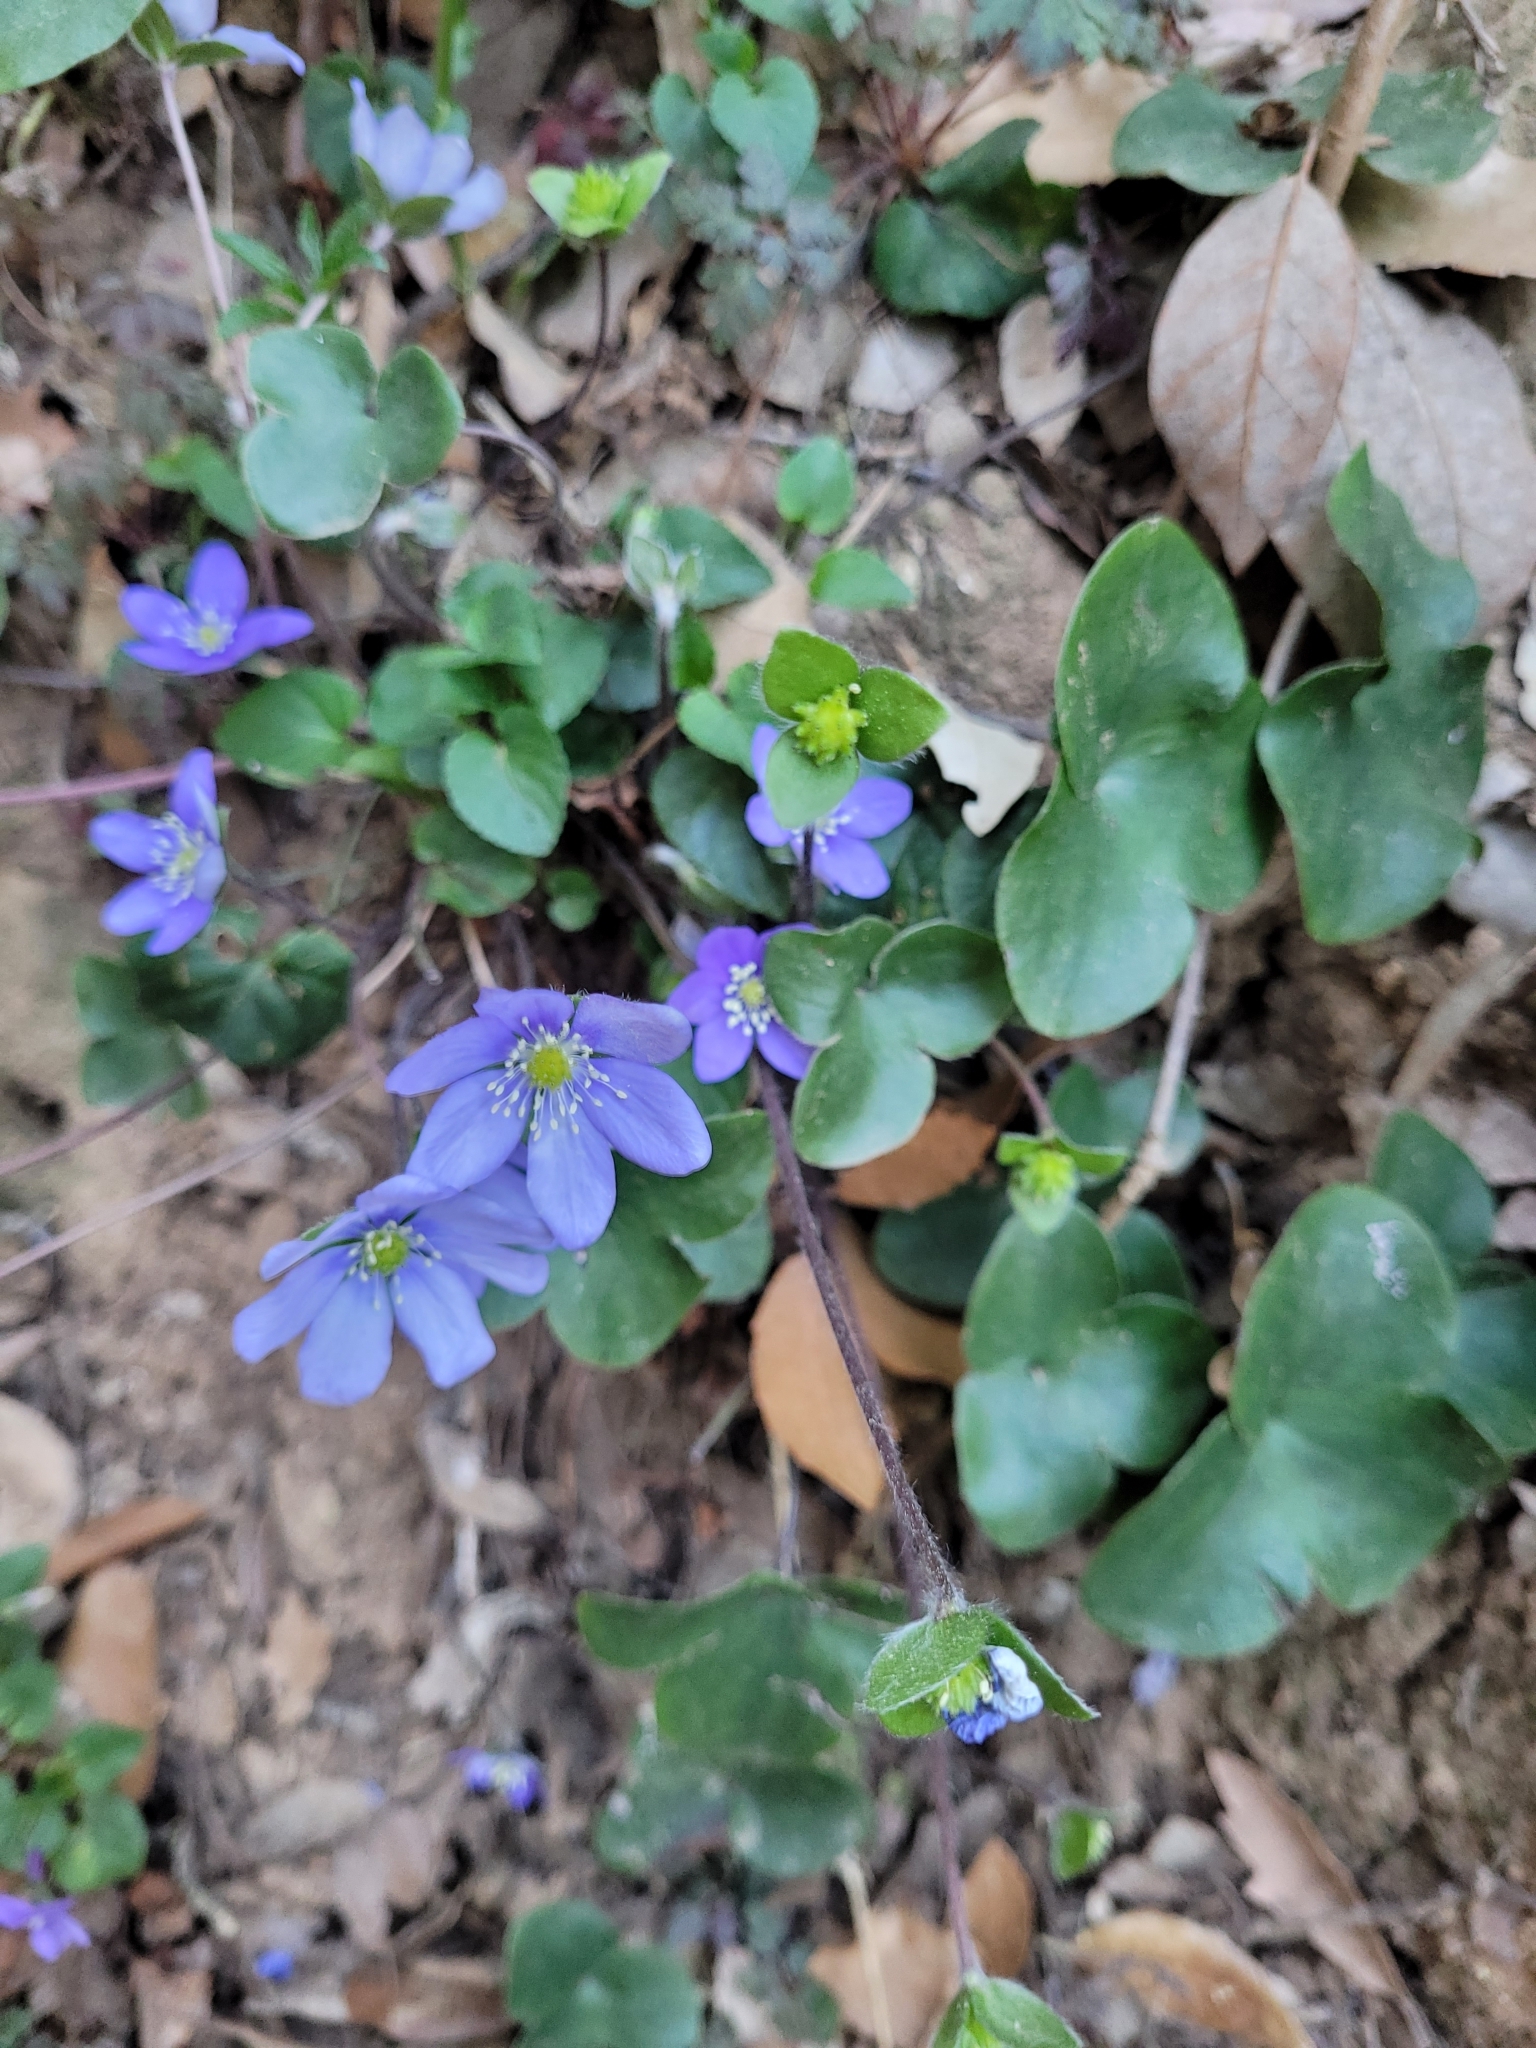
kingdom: Plantae
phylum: Tracheophyta
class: Magnoliopsida
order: Ranunculales
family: Ranunculaceae
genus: Hepatica
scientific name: Hepatica nobilis
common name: Liverleaf
